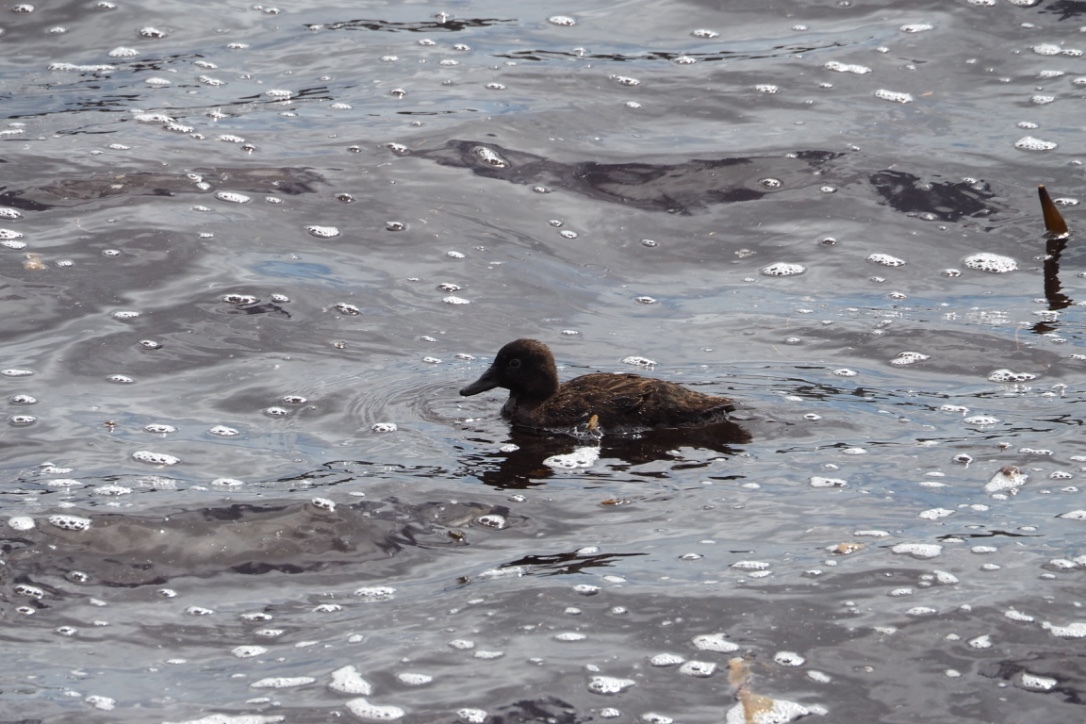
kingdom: Animalia
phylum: Chordata
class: Aves
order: Anseriformes
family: Anatidae
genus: Anas
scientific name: Anas nesiotis
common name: Campbell teal
